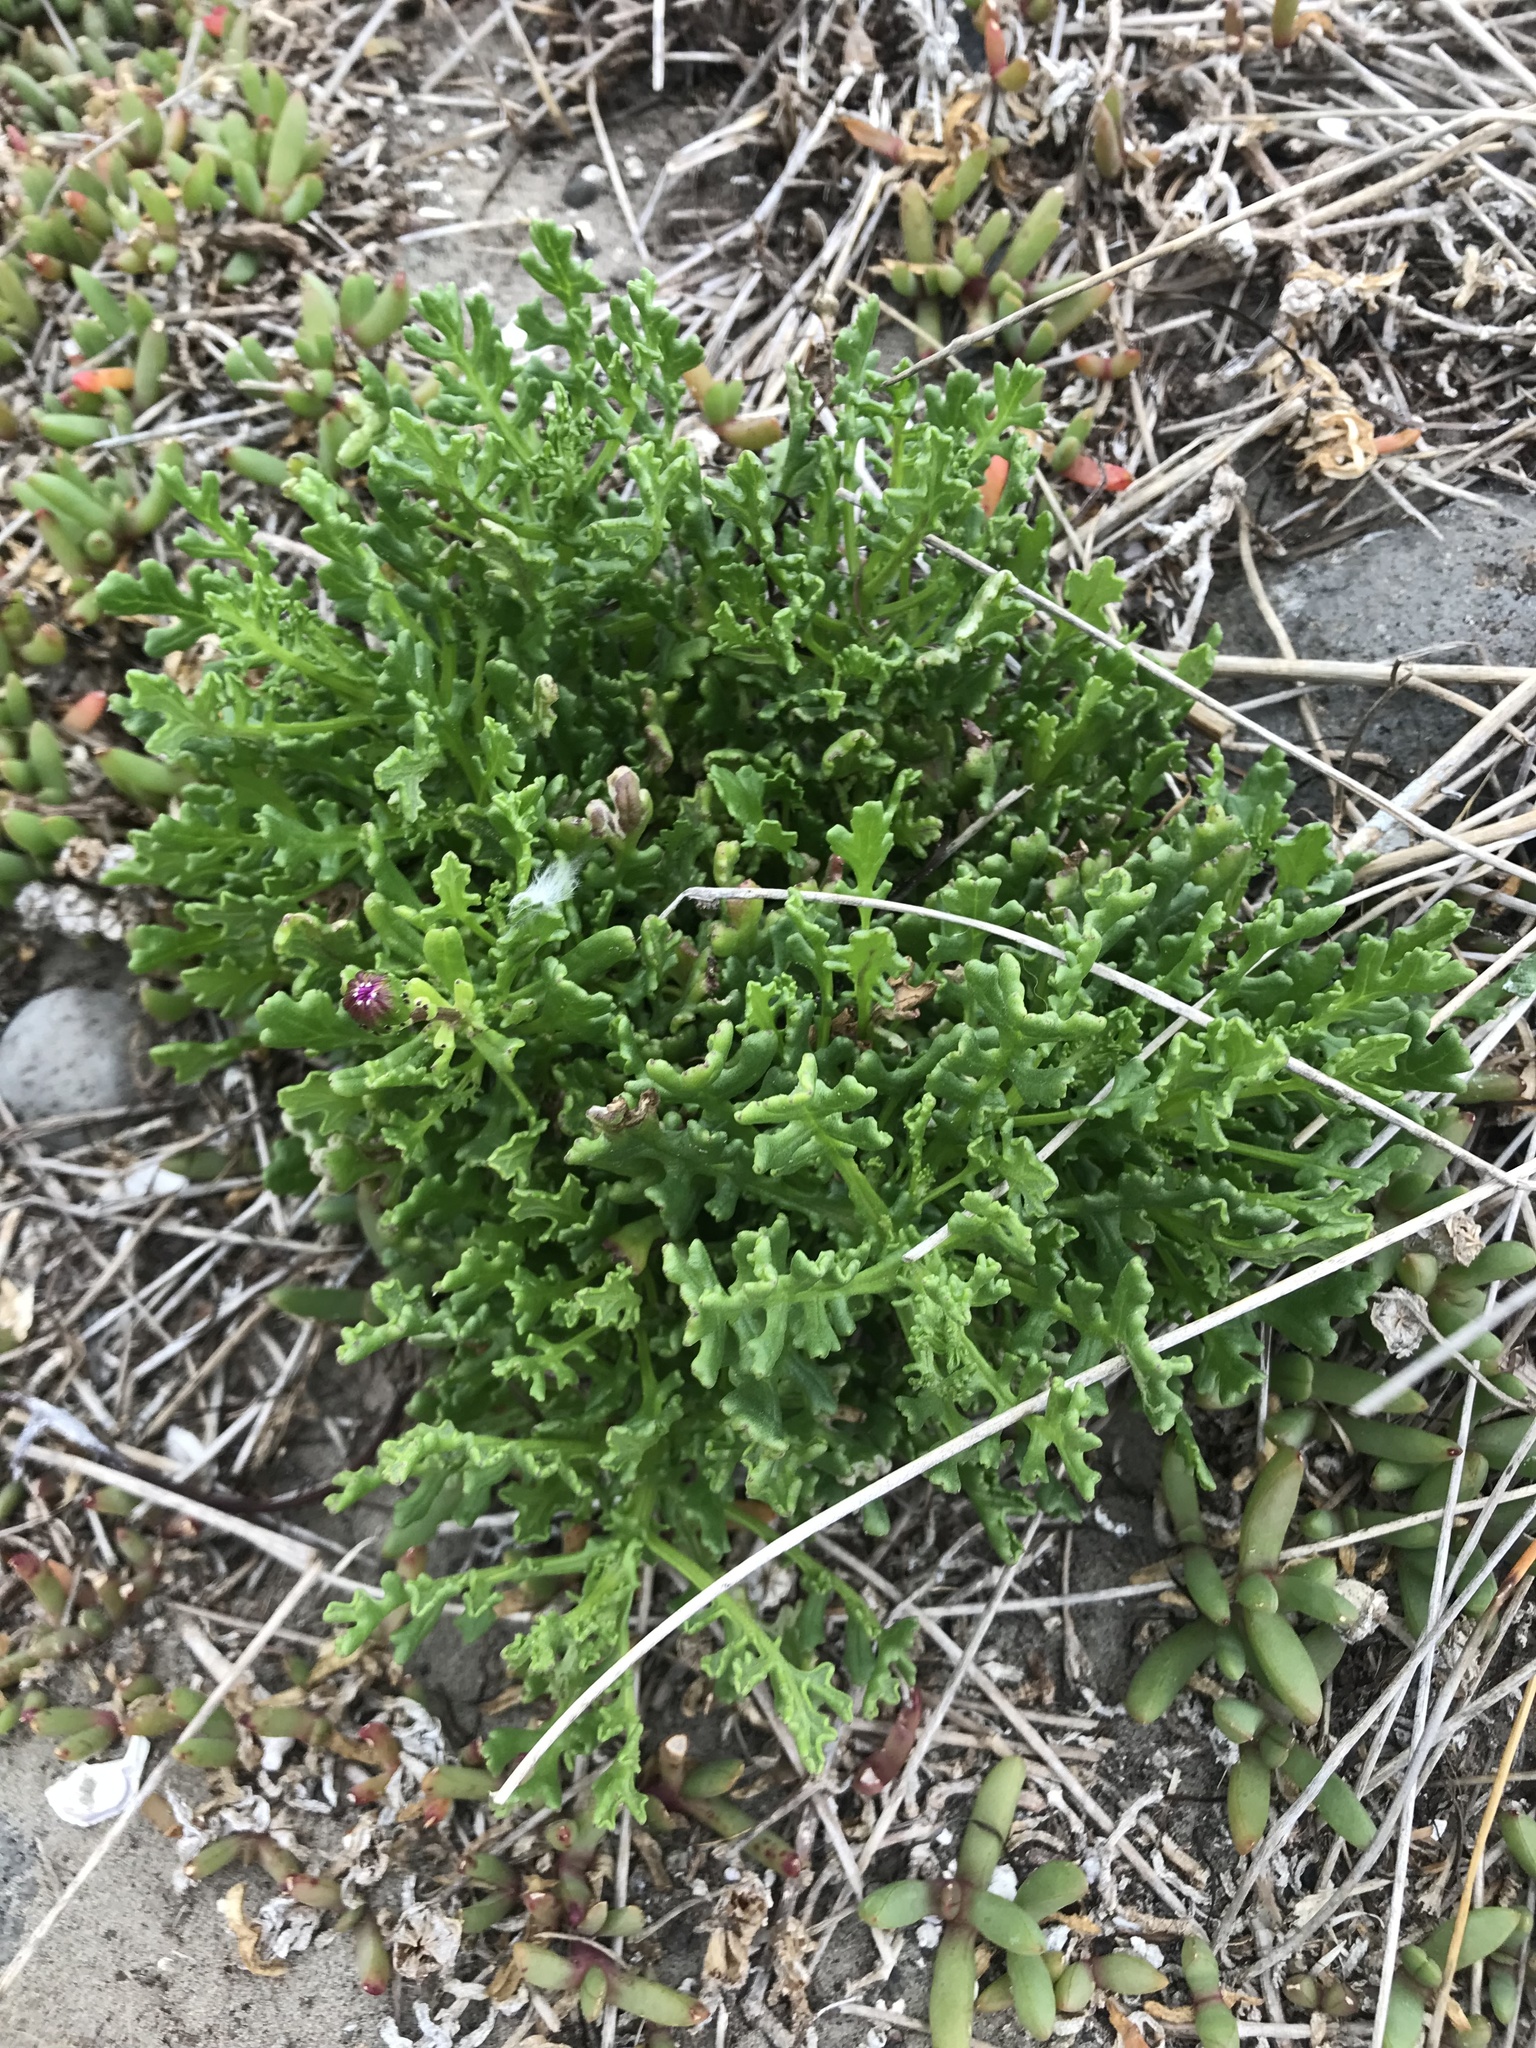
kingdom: Plantae
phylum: Tracheophyta
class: Magnoliopsida
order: Asterales
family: Asteraceae
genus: Senecio
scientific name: Senecio elegans
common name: Purple groundsel
